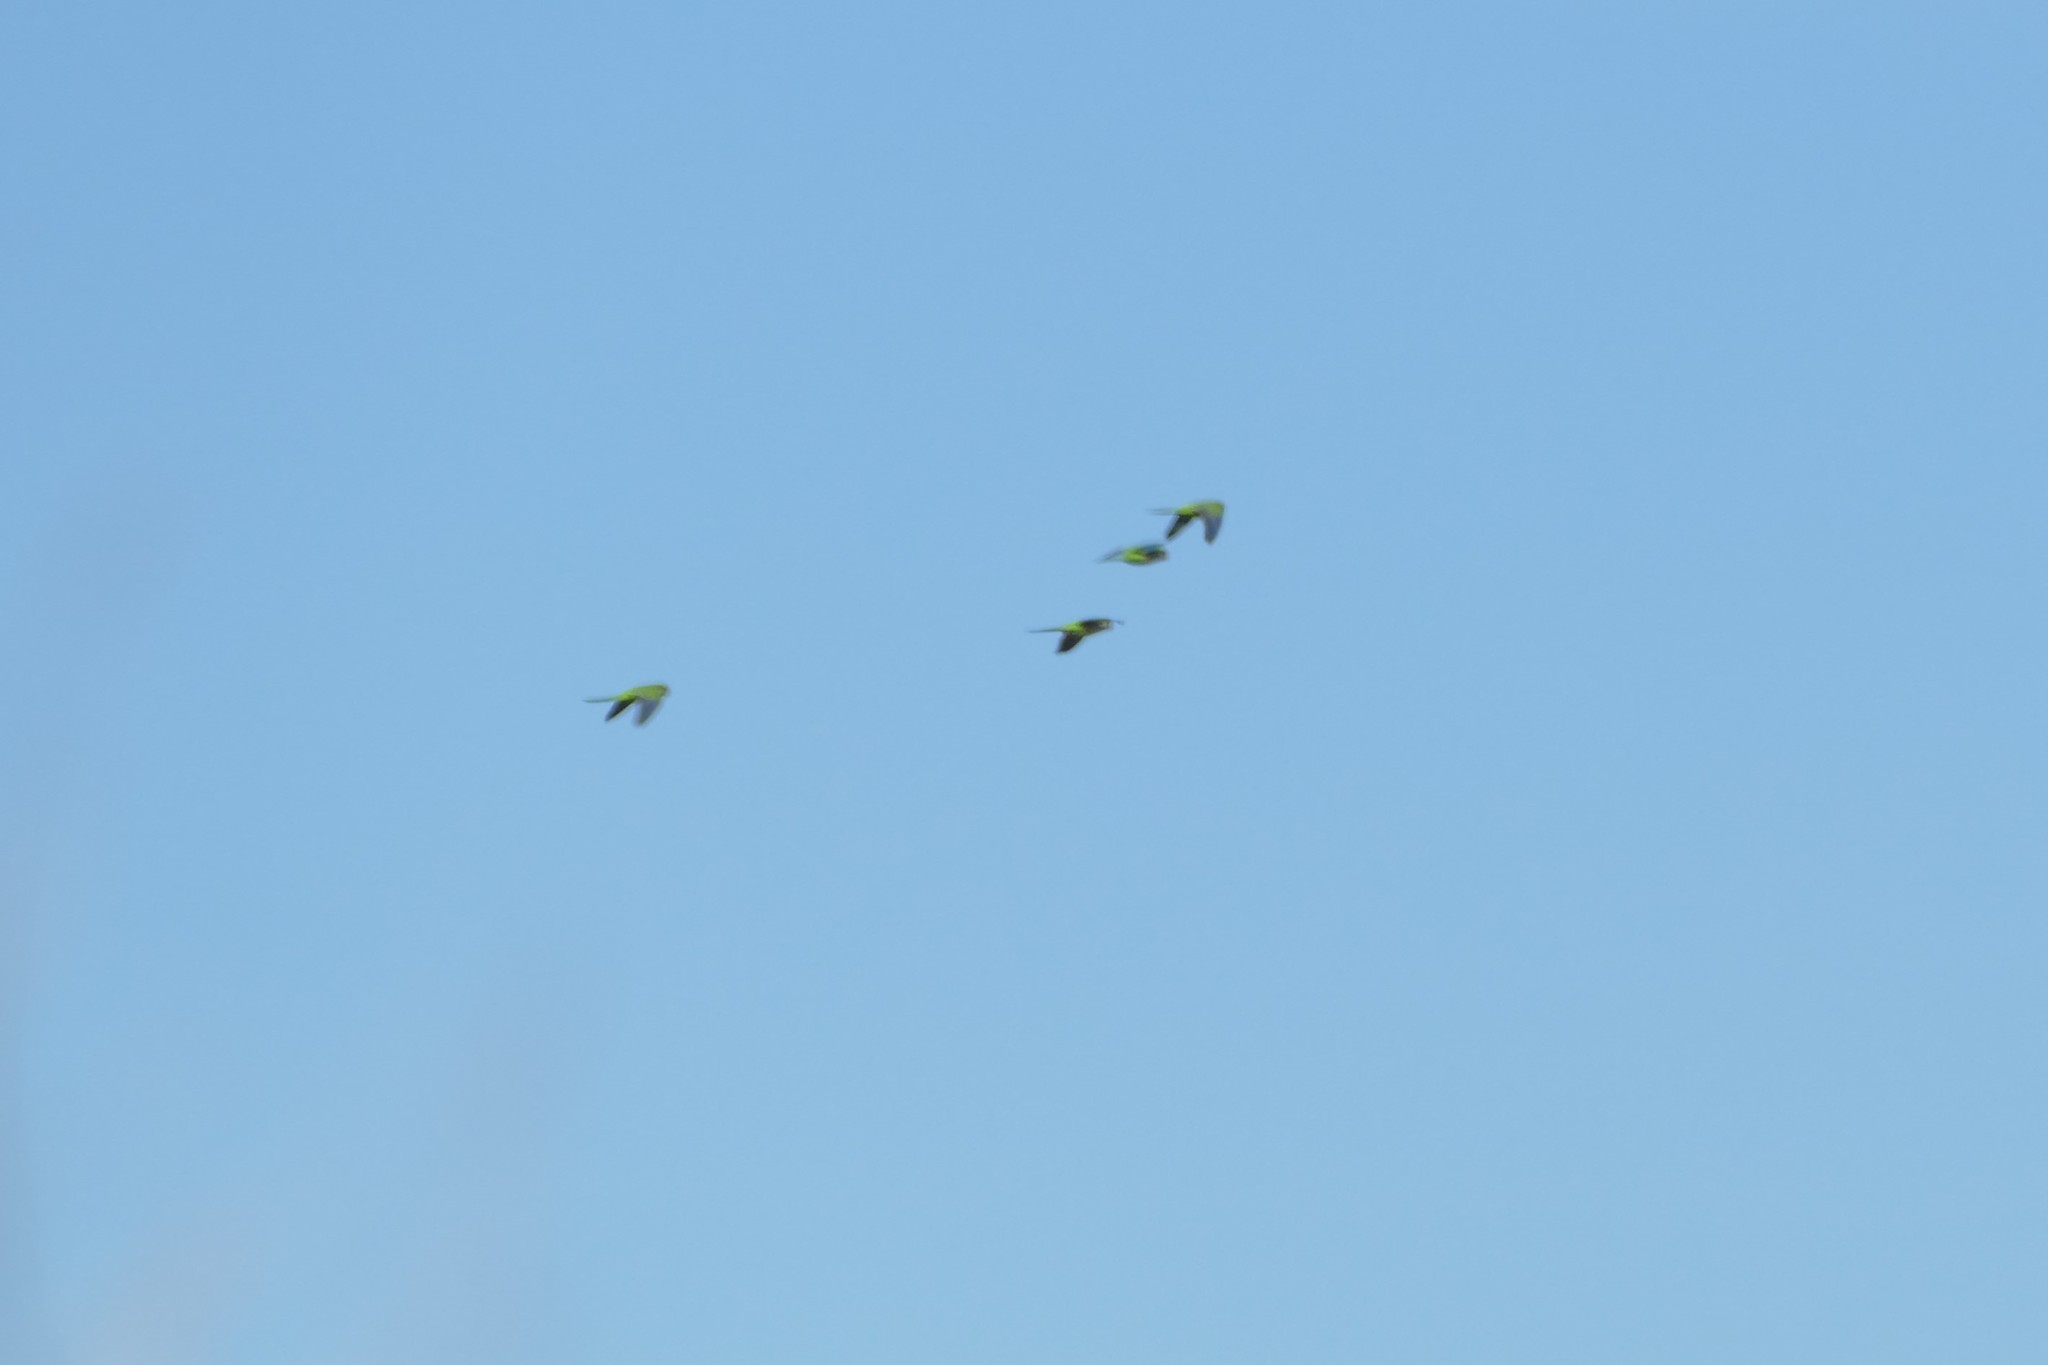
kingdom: Animalia
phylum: Chordata
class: Aves
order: Psittaciformes
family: Psittacidae
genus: Myiopsitta
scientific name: Myiopsitta monachus
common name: Monk parakeet
